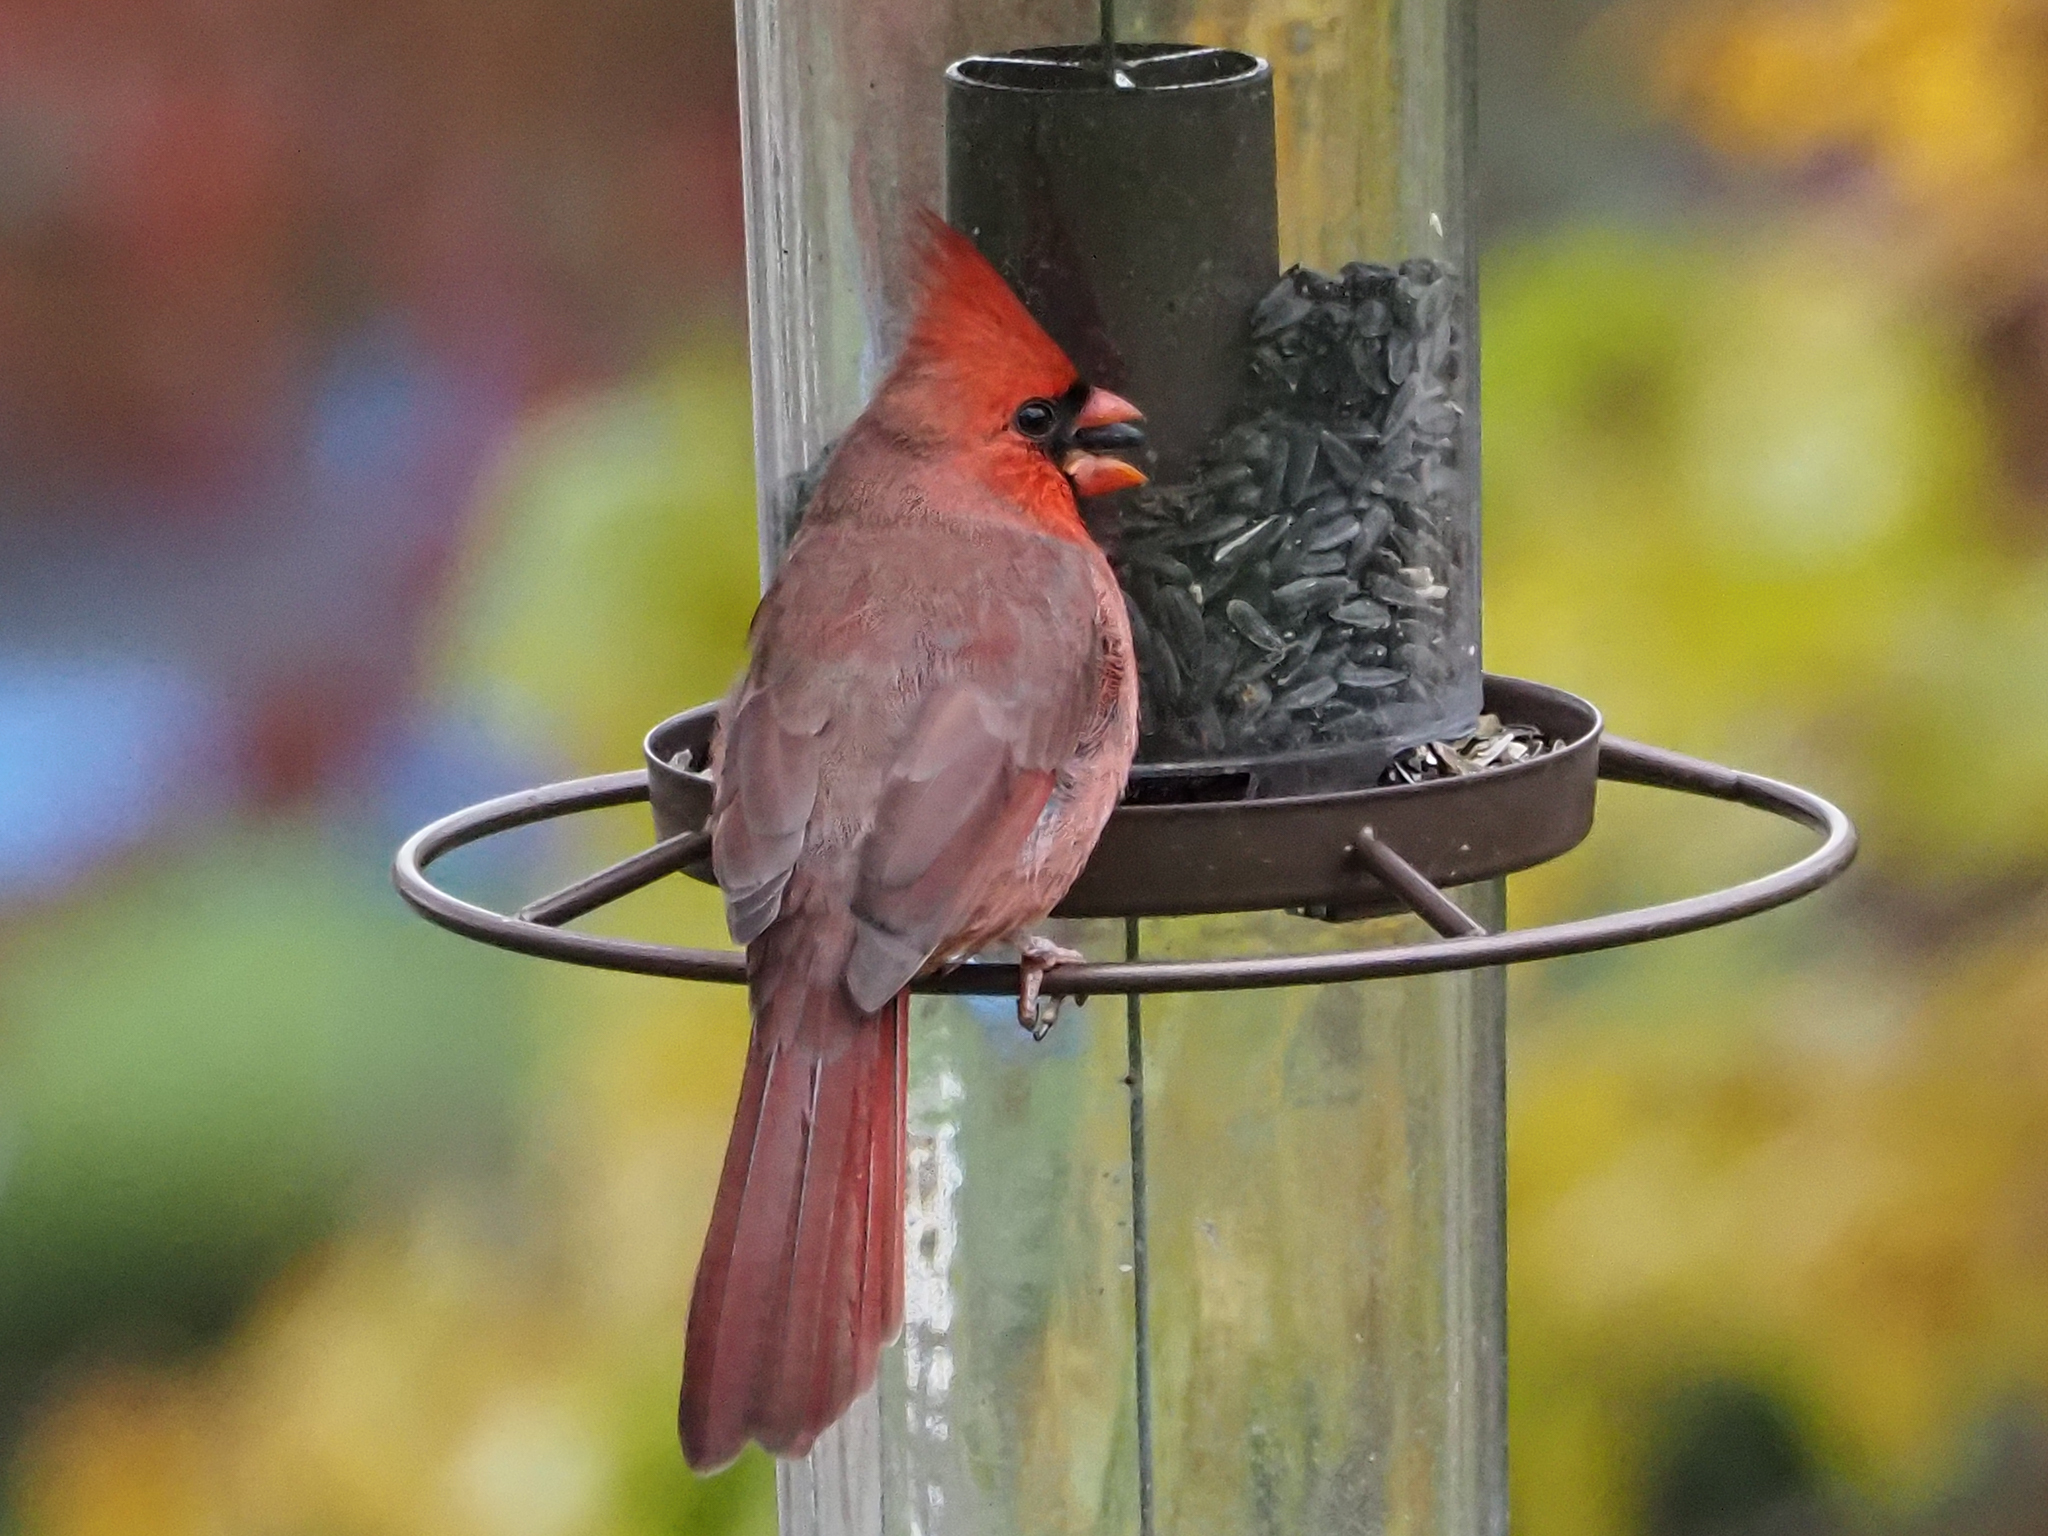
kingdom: Animalia
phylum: Chordata
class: Aves
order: Passeriformes
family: Cardinalidae
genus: Cardinalis
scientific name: Cardinalis cardinalis
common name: Northern cardinal
